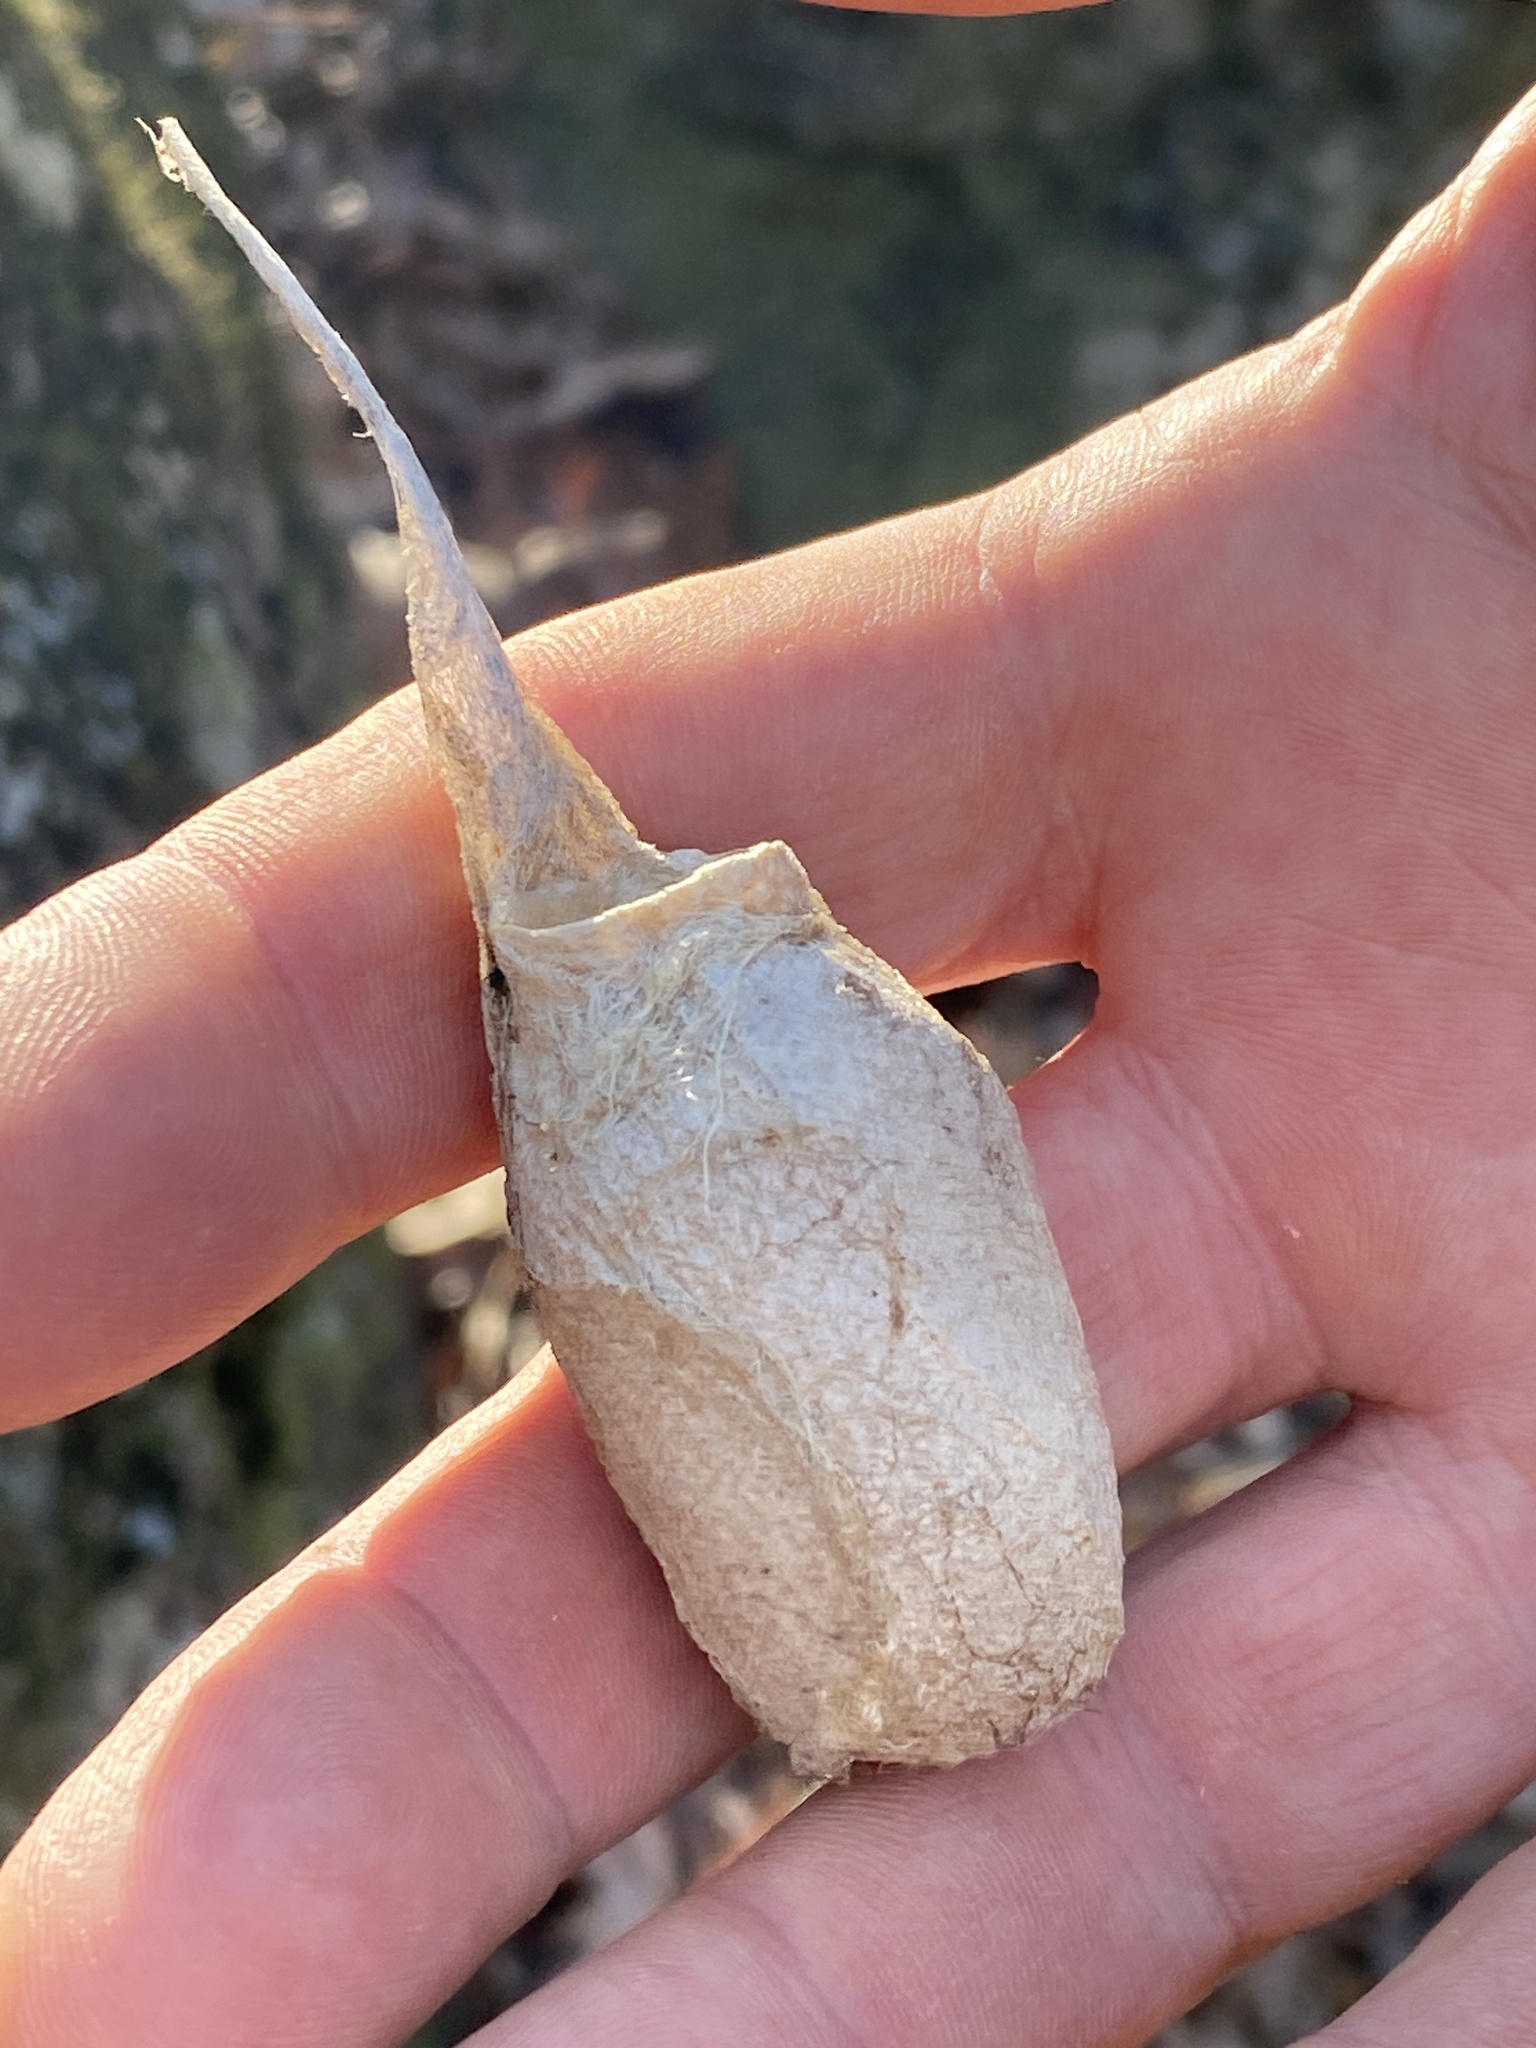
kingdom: Animalia
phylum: Arthropoda
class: Insecta
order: Lepidoptera
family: Saturniidae
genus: Antheraea
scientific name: Antheraea polyphemus
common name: Polyphemus moth
